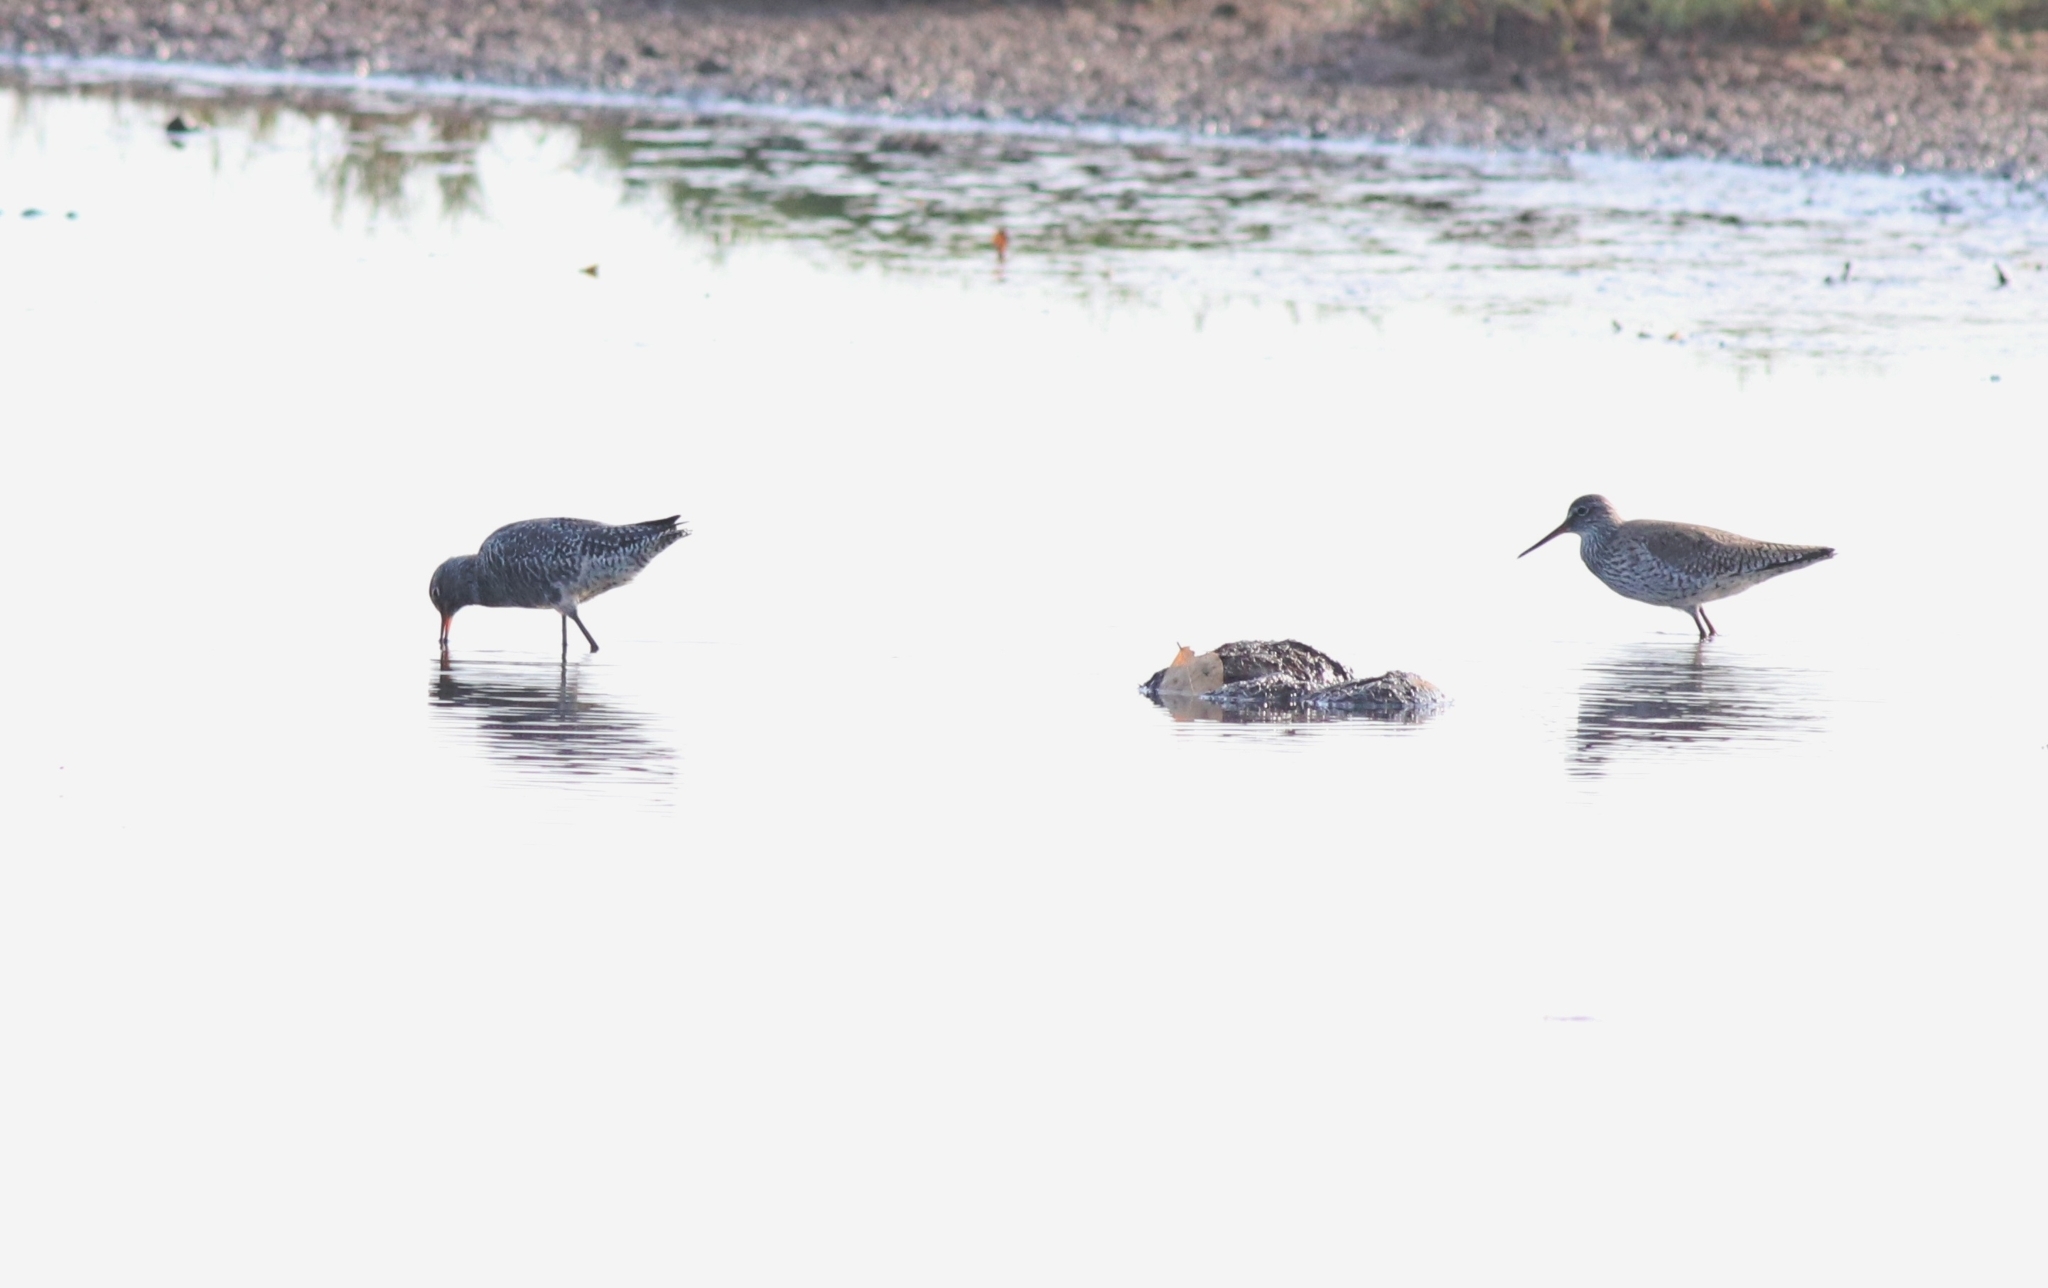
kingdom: Animalia
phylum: Chordata
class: Aves
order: Charadriiformes
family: Scolopacidae
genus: Tringa
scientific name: Tringa totanus
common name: Common redshank
